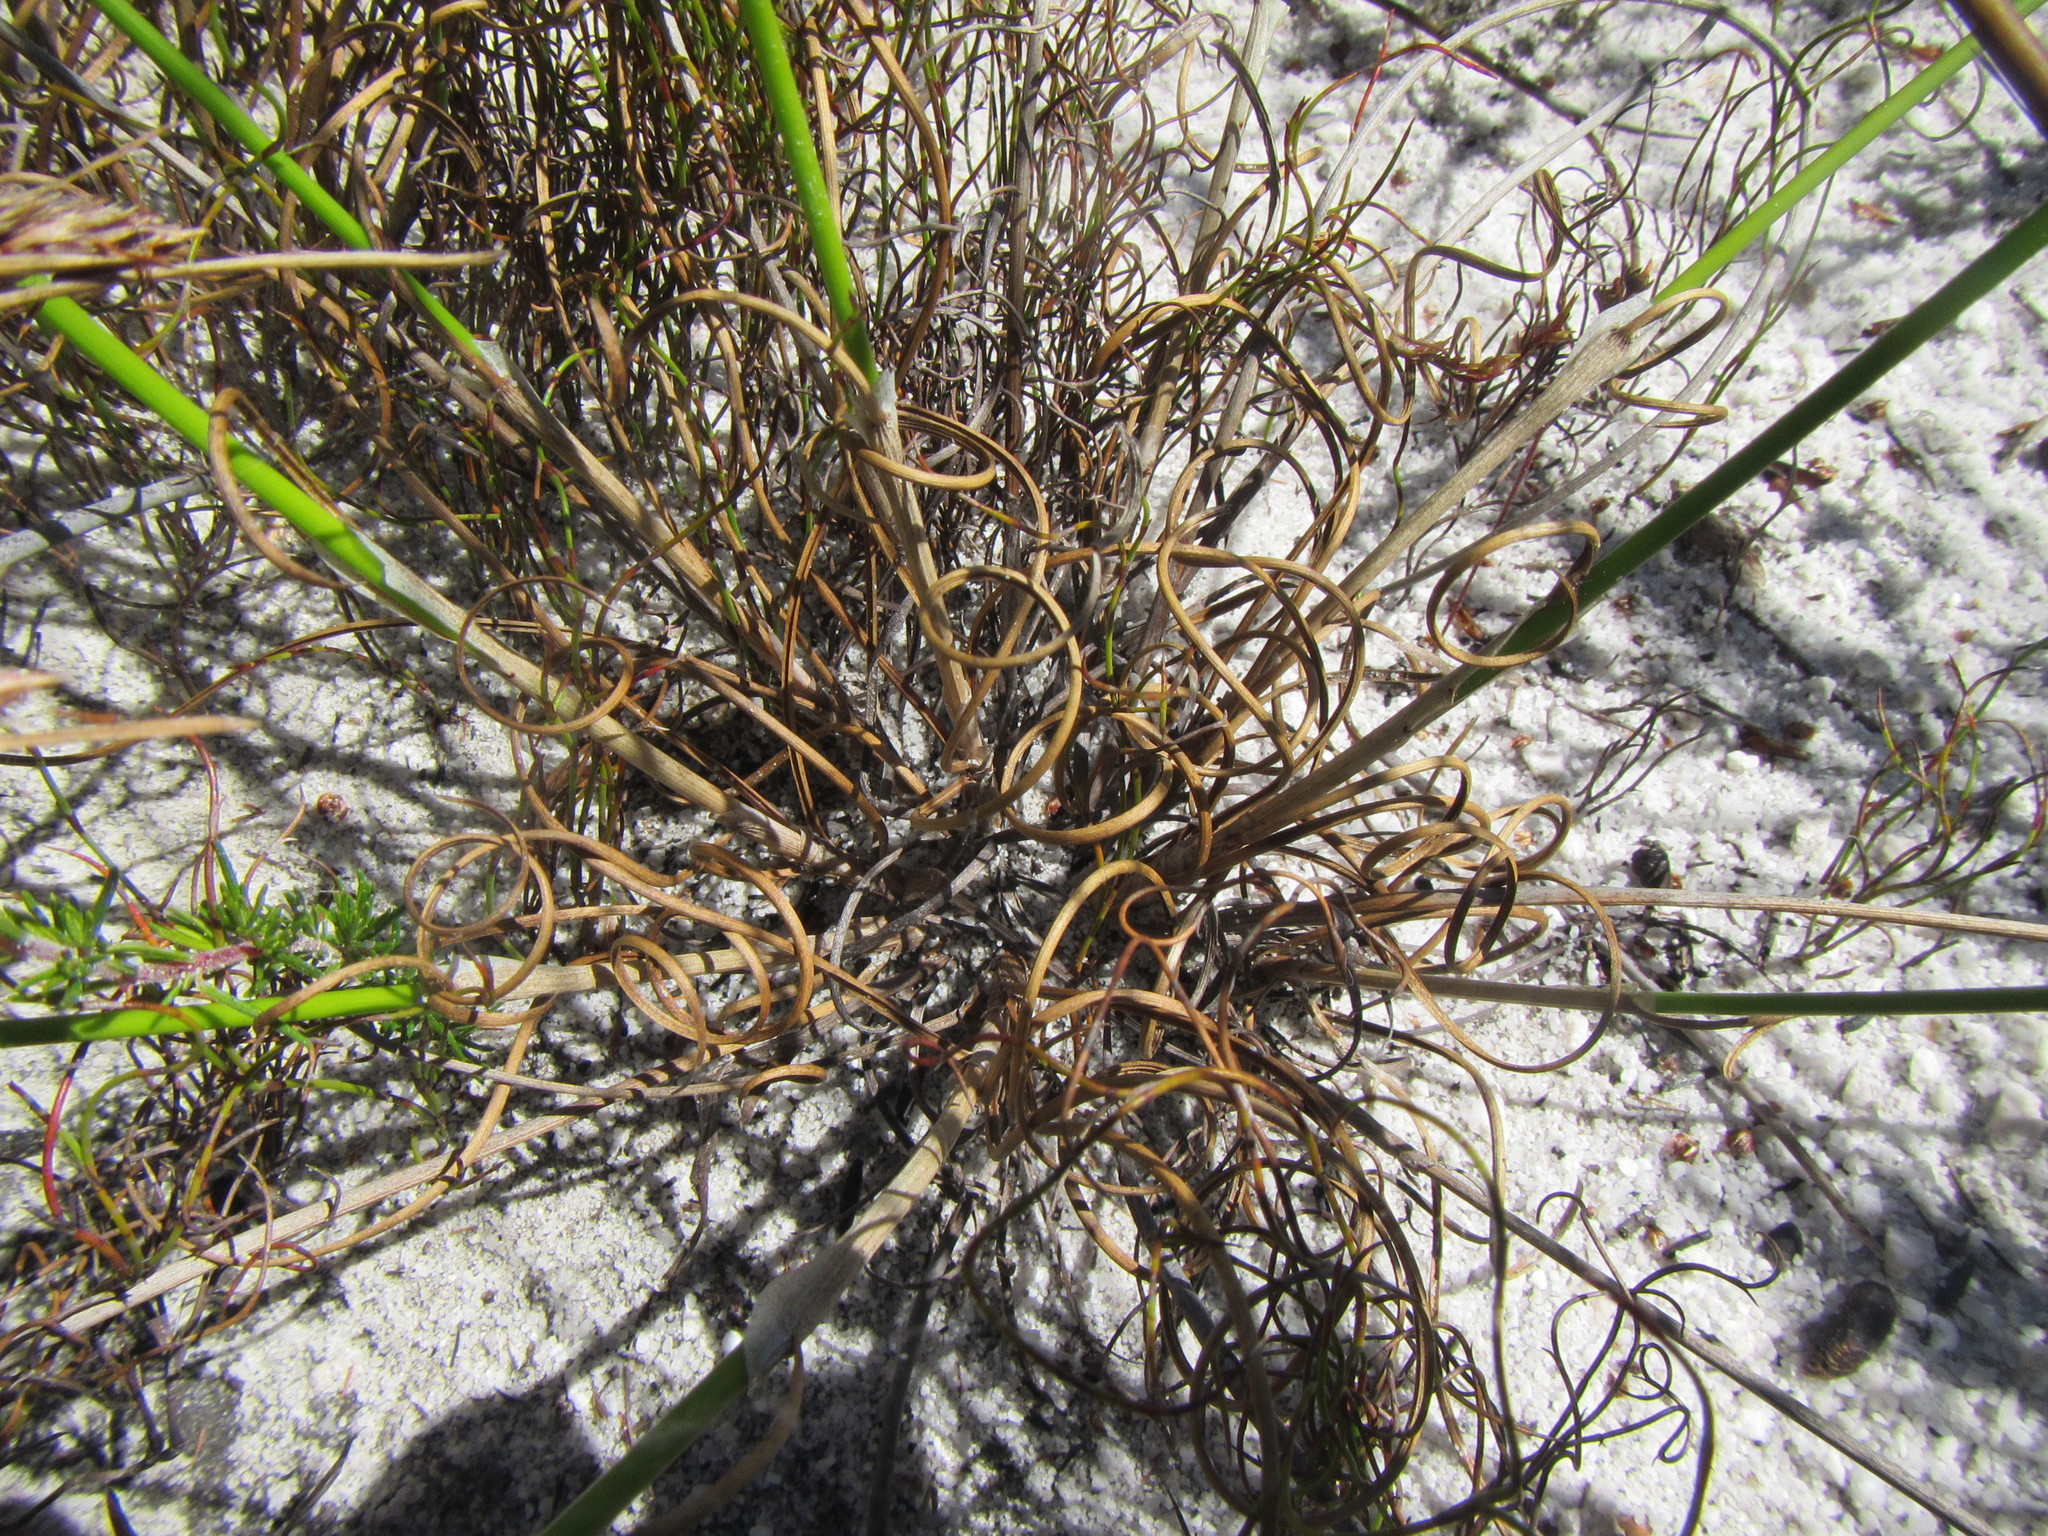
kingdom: Plantae
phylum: Tracheophyta
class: Liliopsida
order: Poales
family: Cyperaceae
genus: Schoenus
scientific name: Schoenus auritus
